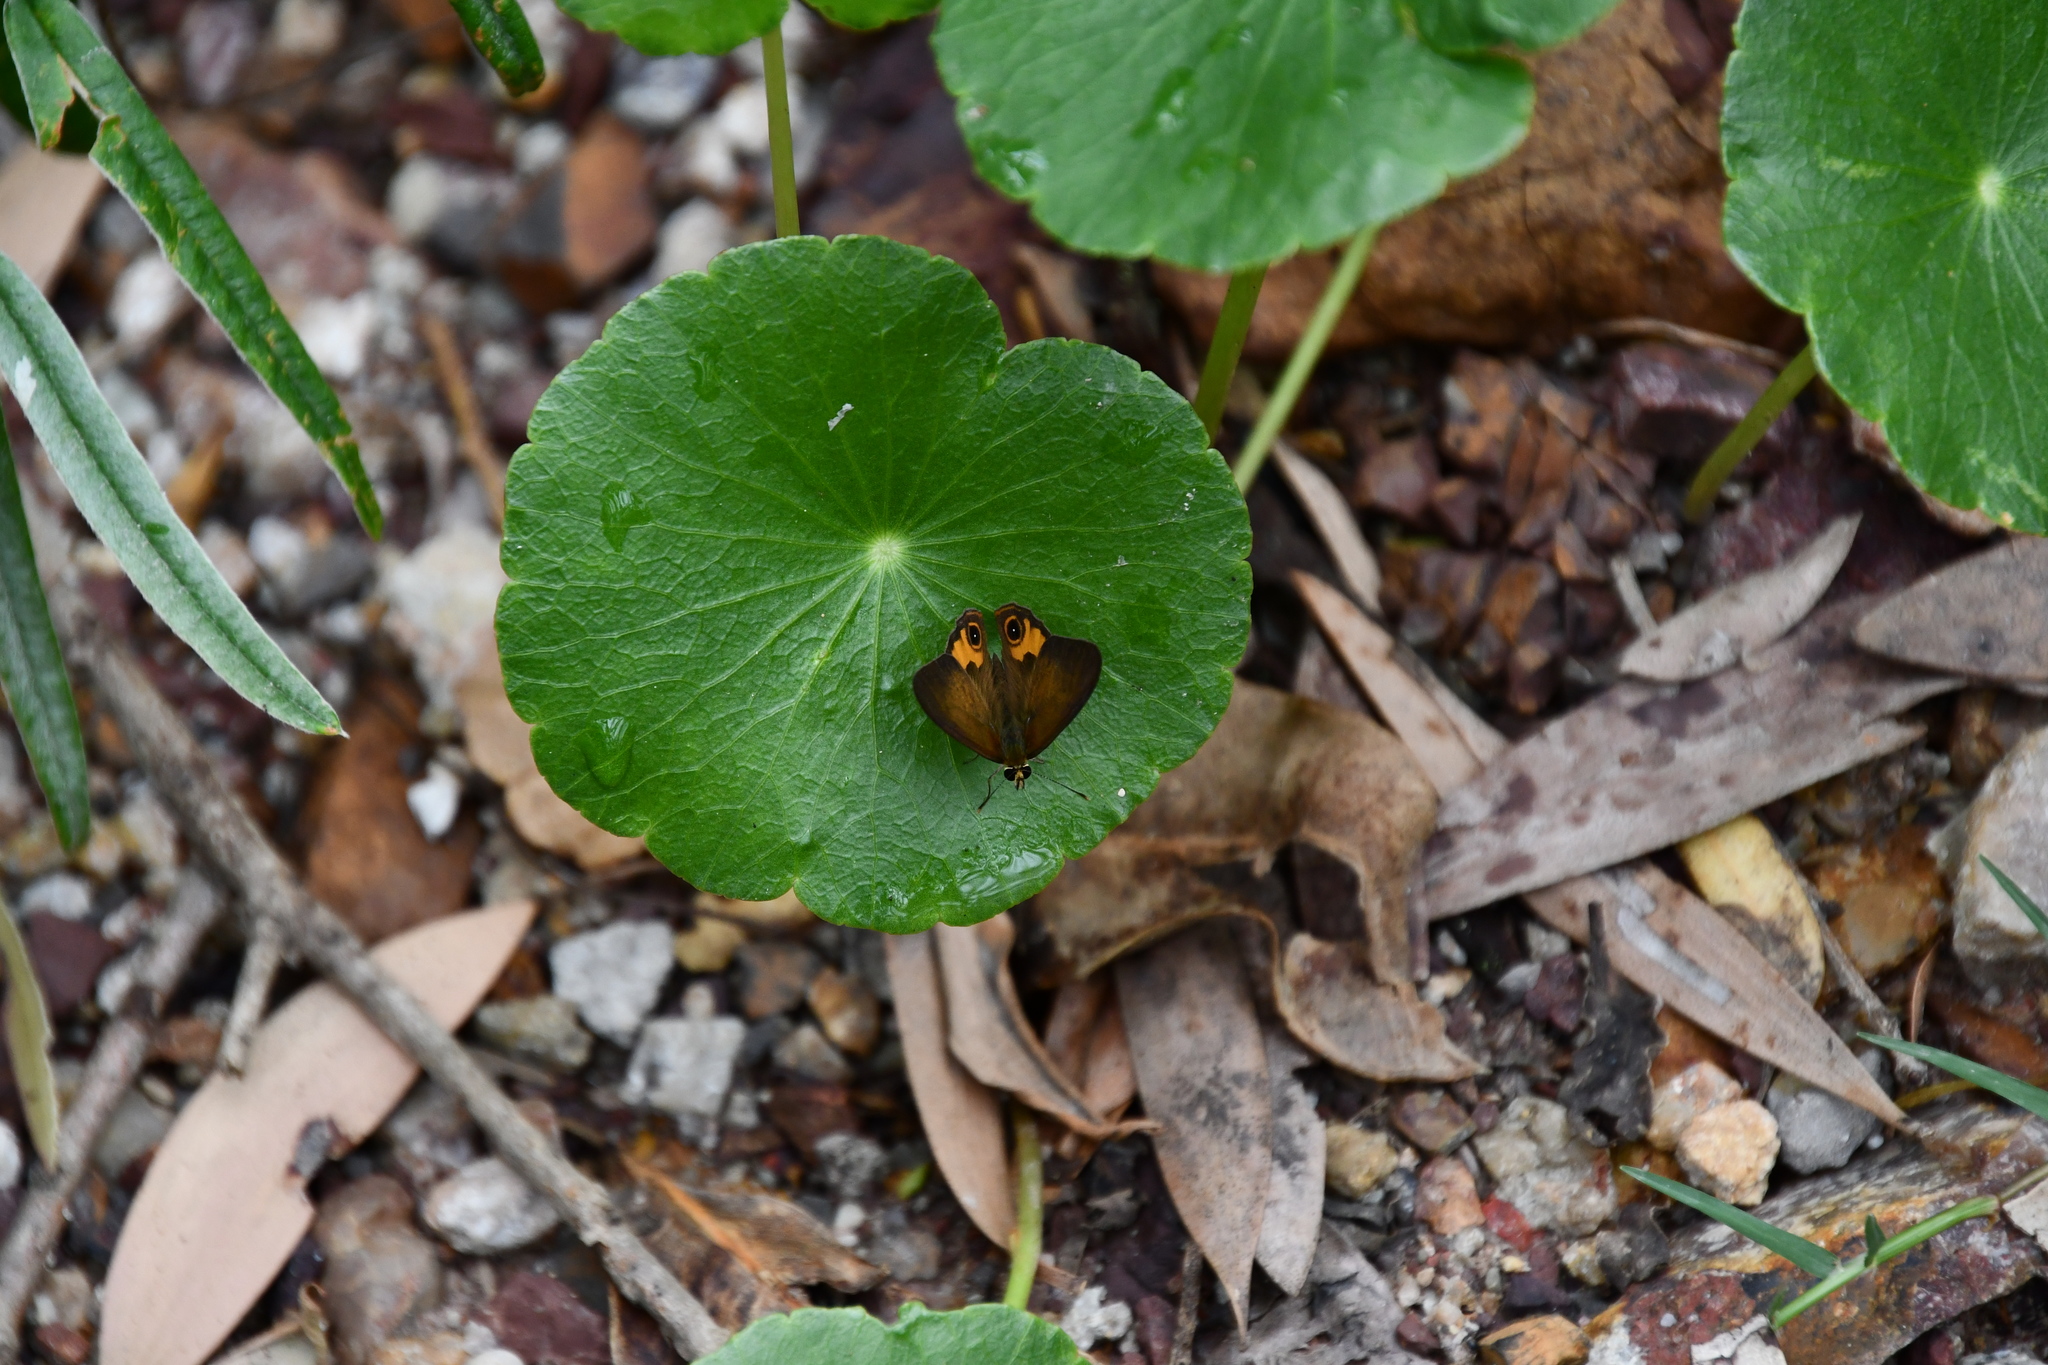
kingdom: Animalia
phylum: Arthropoda
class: Insecta
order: Lepidoptera
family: Nymphalidae
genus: Hypocysta
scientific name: Hypocysta metirius
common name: Brown ringlet
